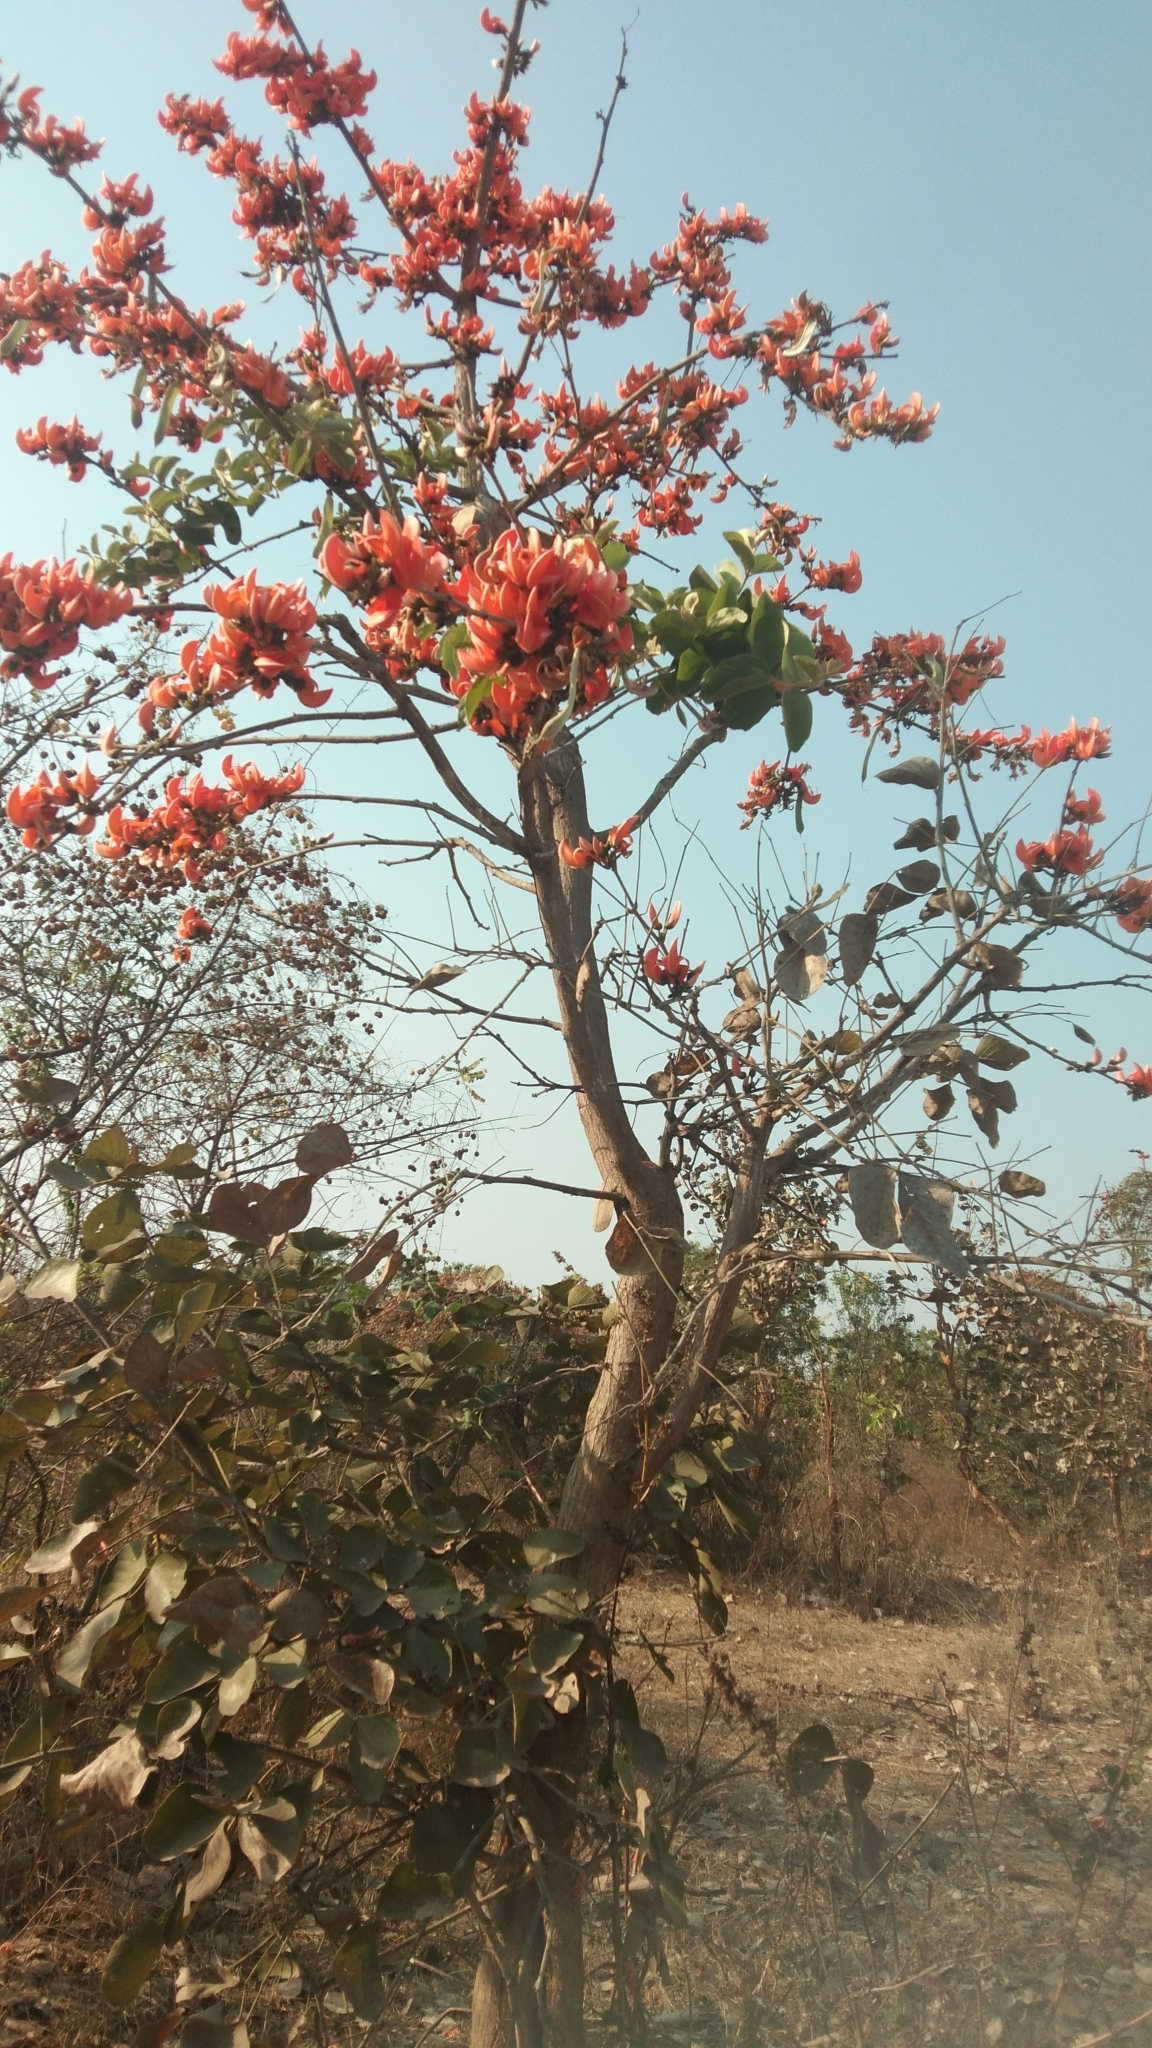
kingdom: Plantae
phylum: Tracheophyta
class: Magnoliopsida
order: Fabales
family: Fabaceae
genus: Butea
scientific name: Butea monosperma
